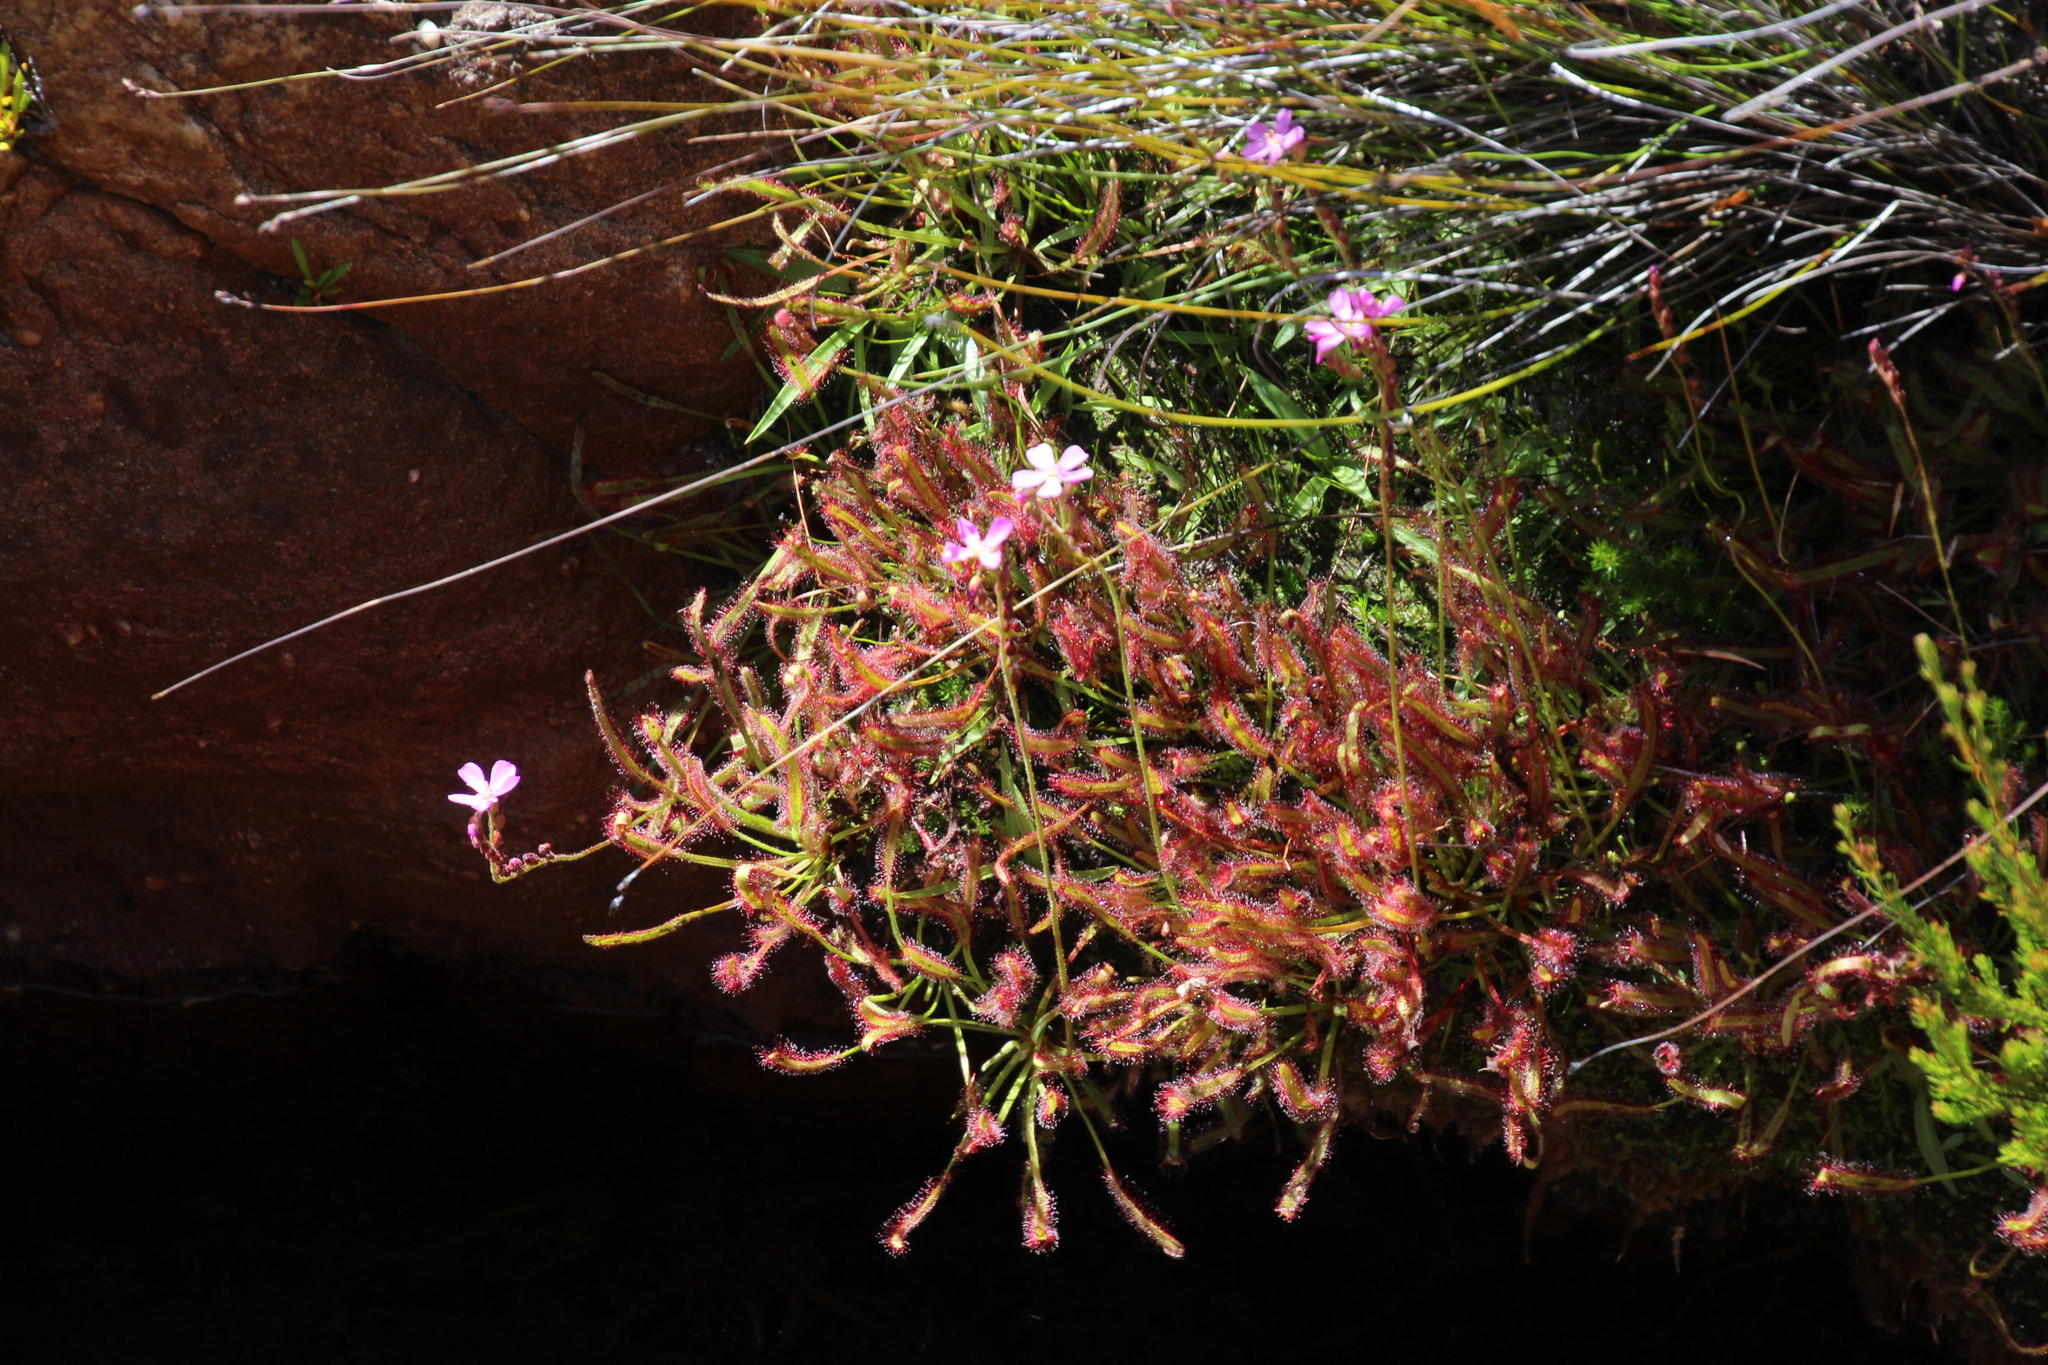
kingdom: Plantae
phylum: Tracheophyta
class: Magnoliopsida
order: Caryophyllales
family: Droseraceae
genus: Drosera
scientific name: Drosera capensis
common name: Cape sundew
